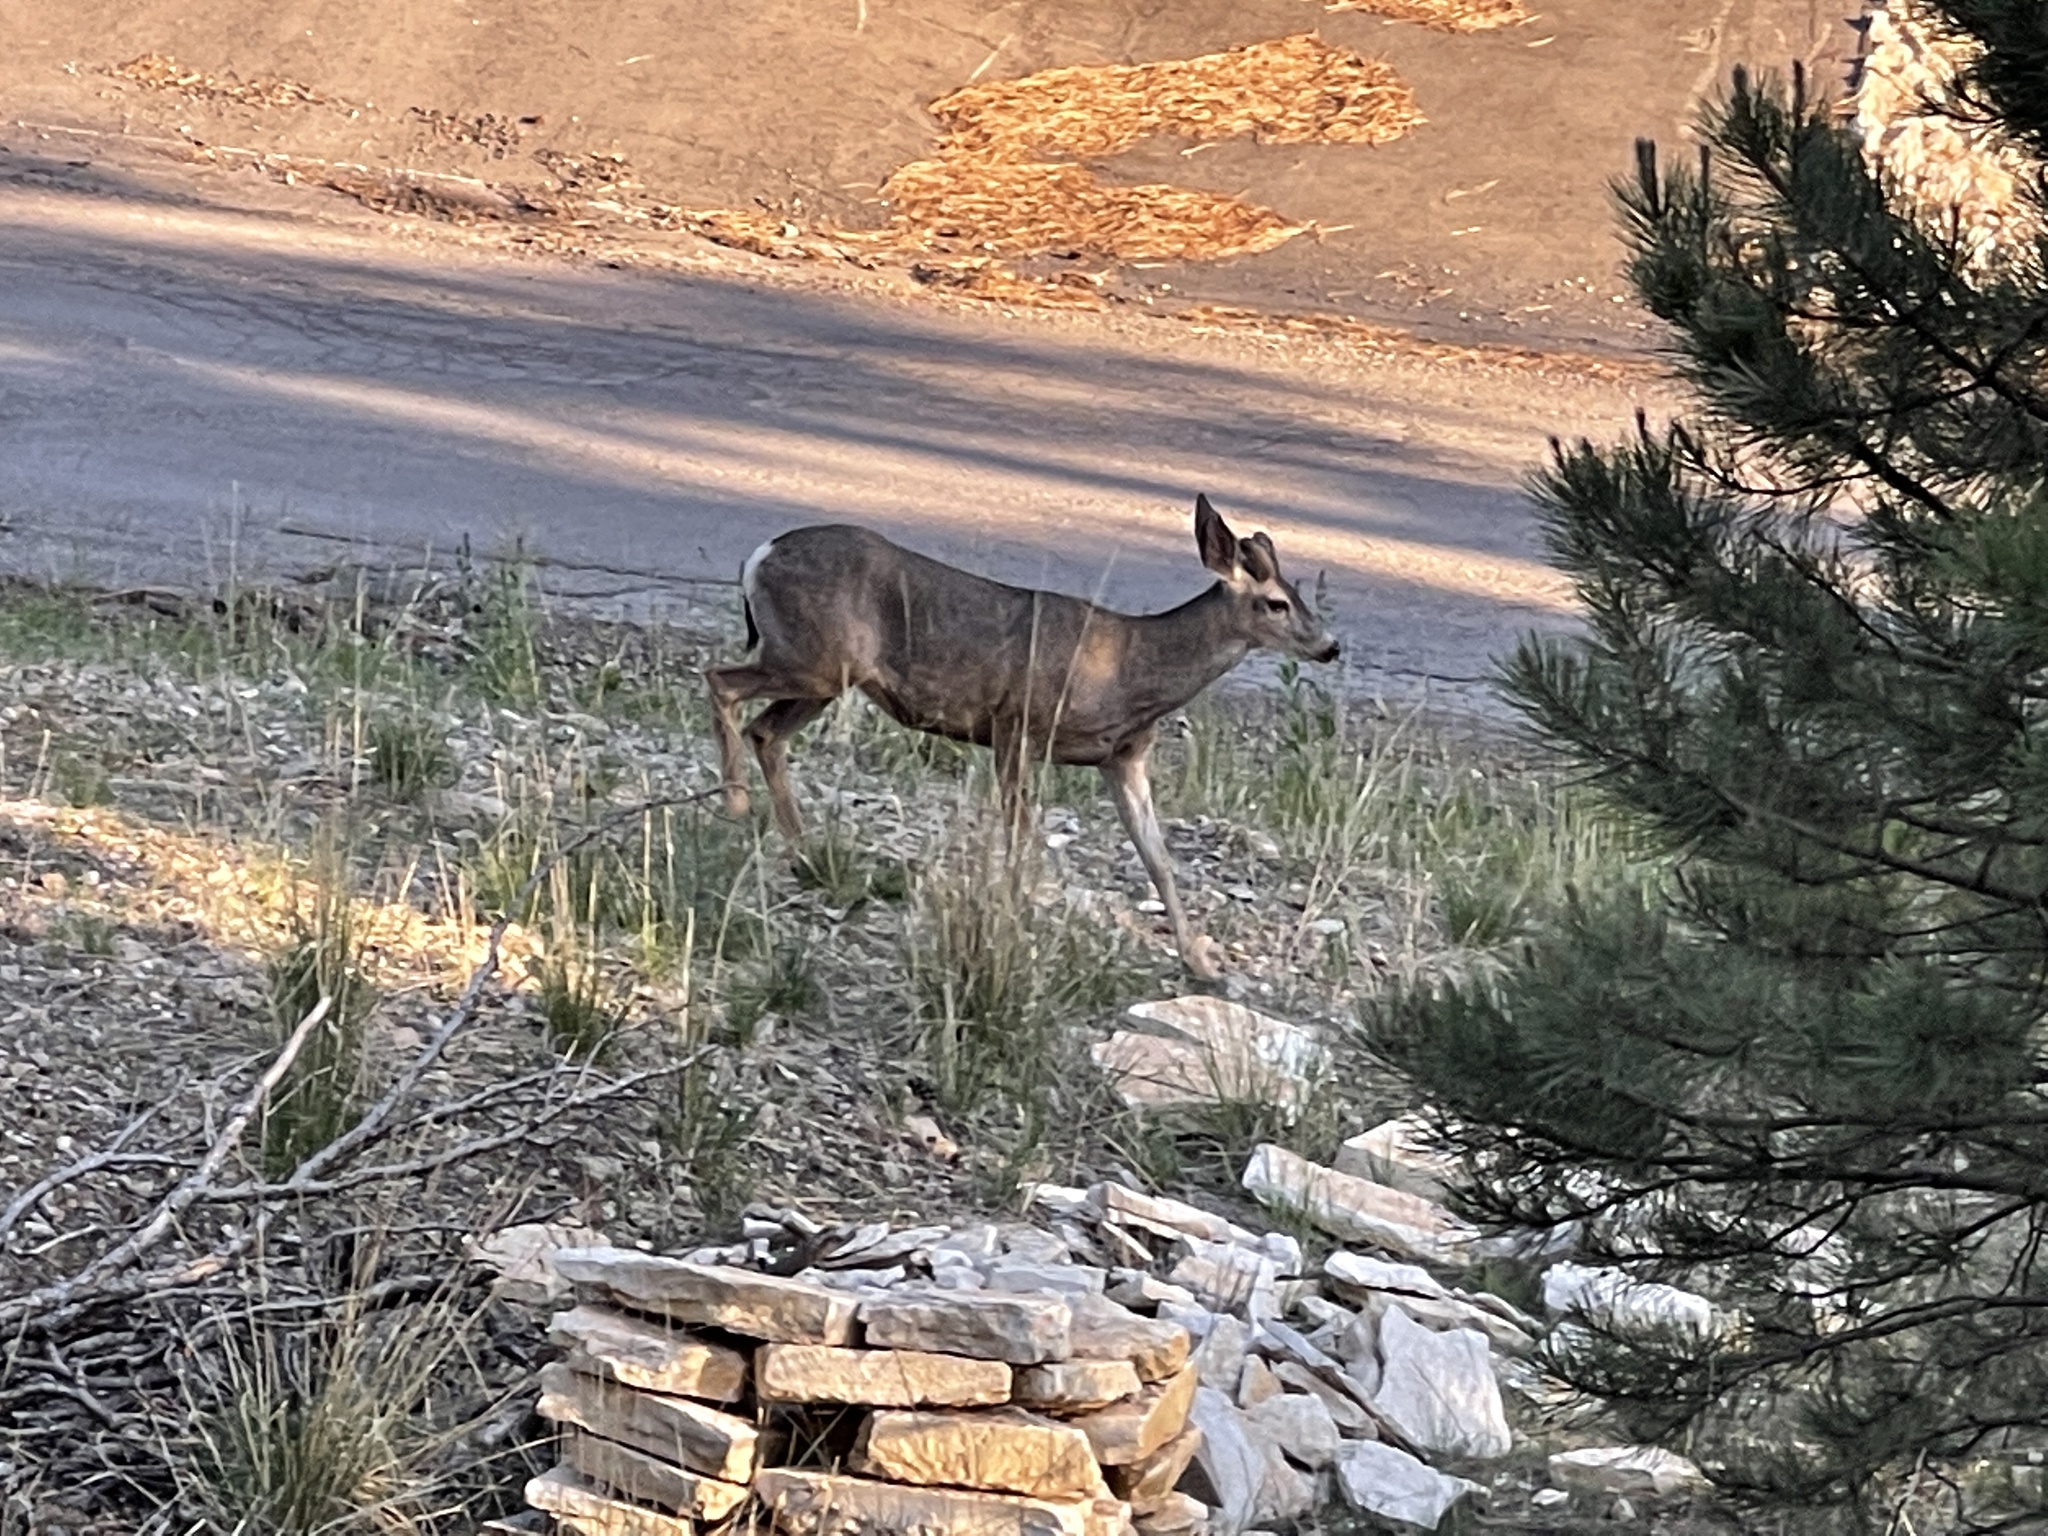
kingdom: Animalia
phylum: Chordata
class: Mammalia
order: Artiodactyla
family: Cervidae
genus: Odocoileus
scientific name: Odocoileus hemionus
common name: Mule deer
